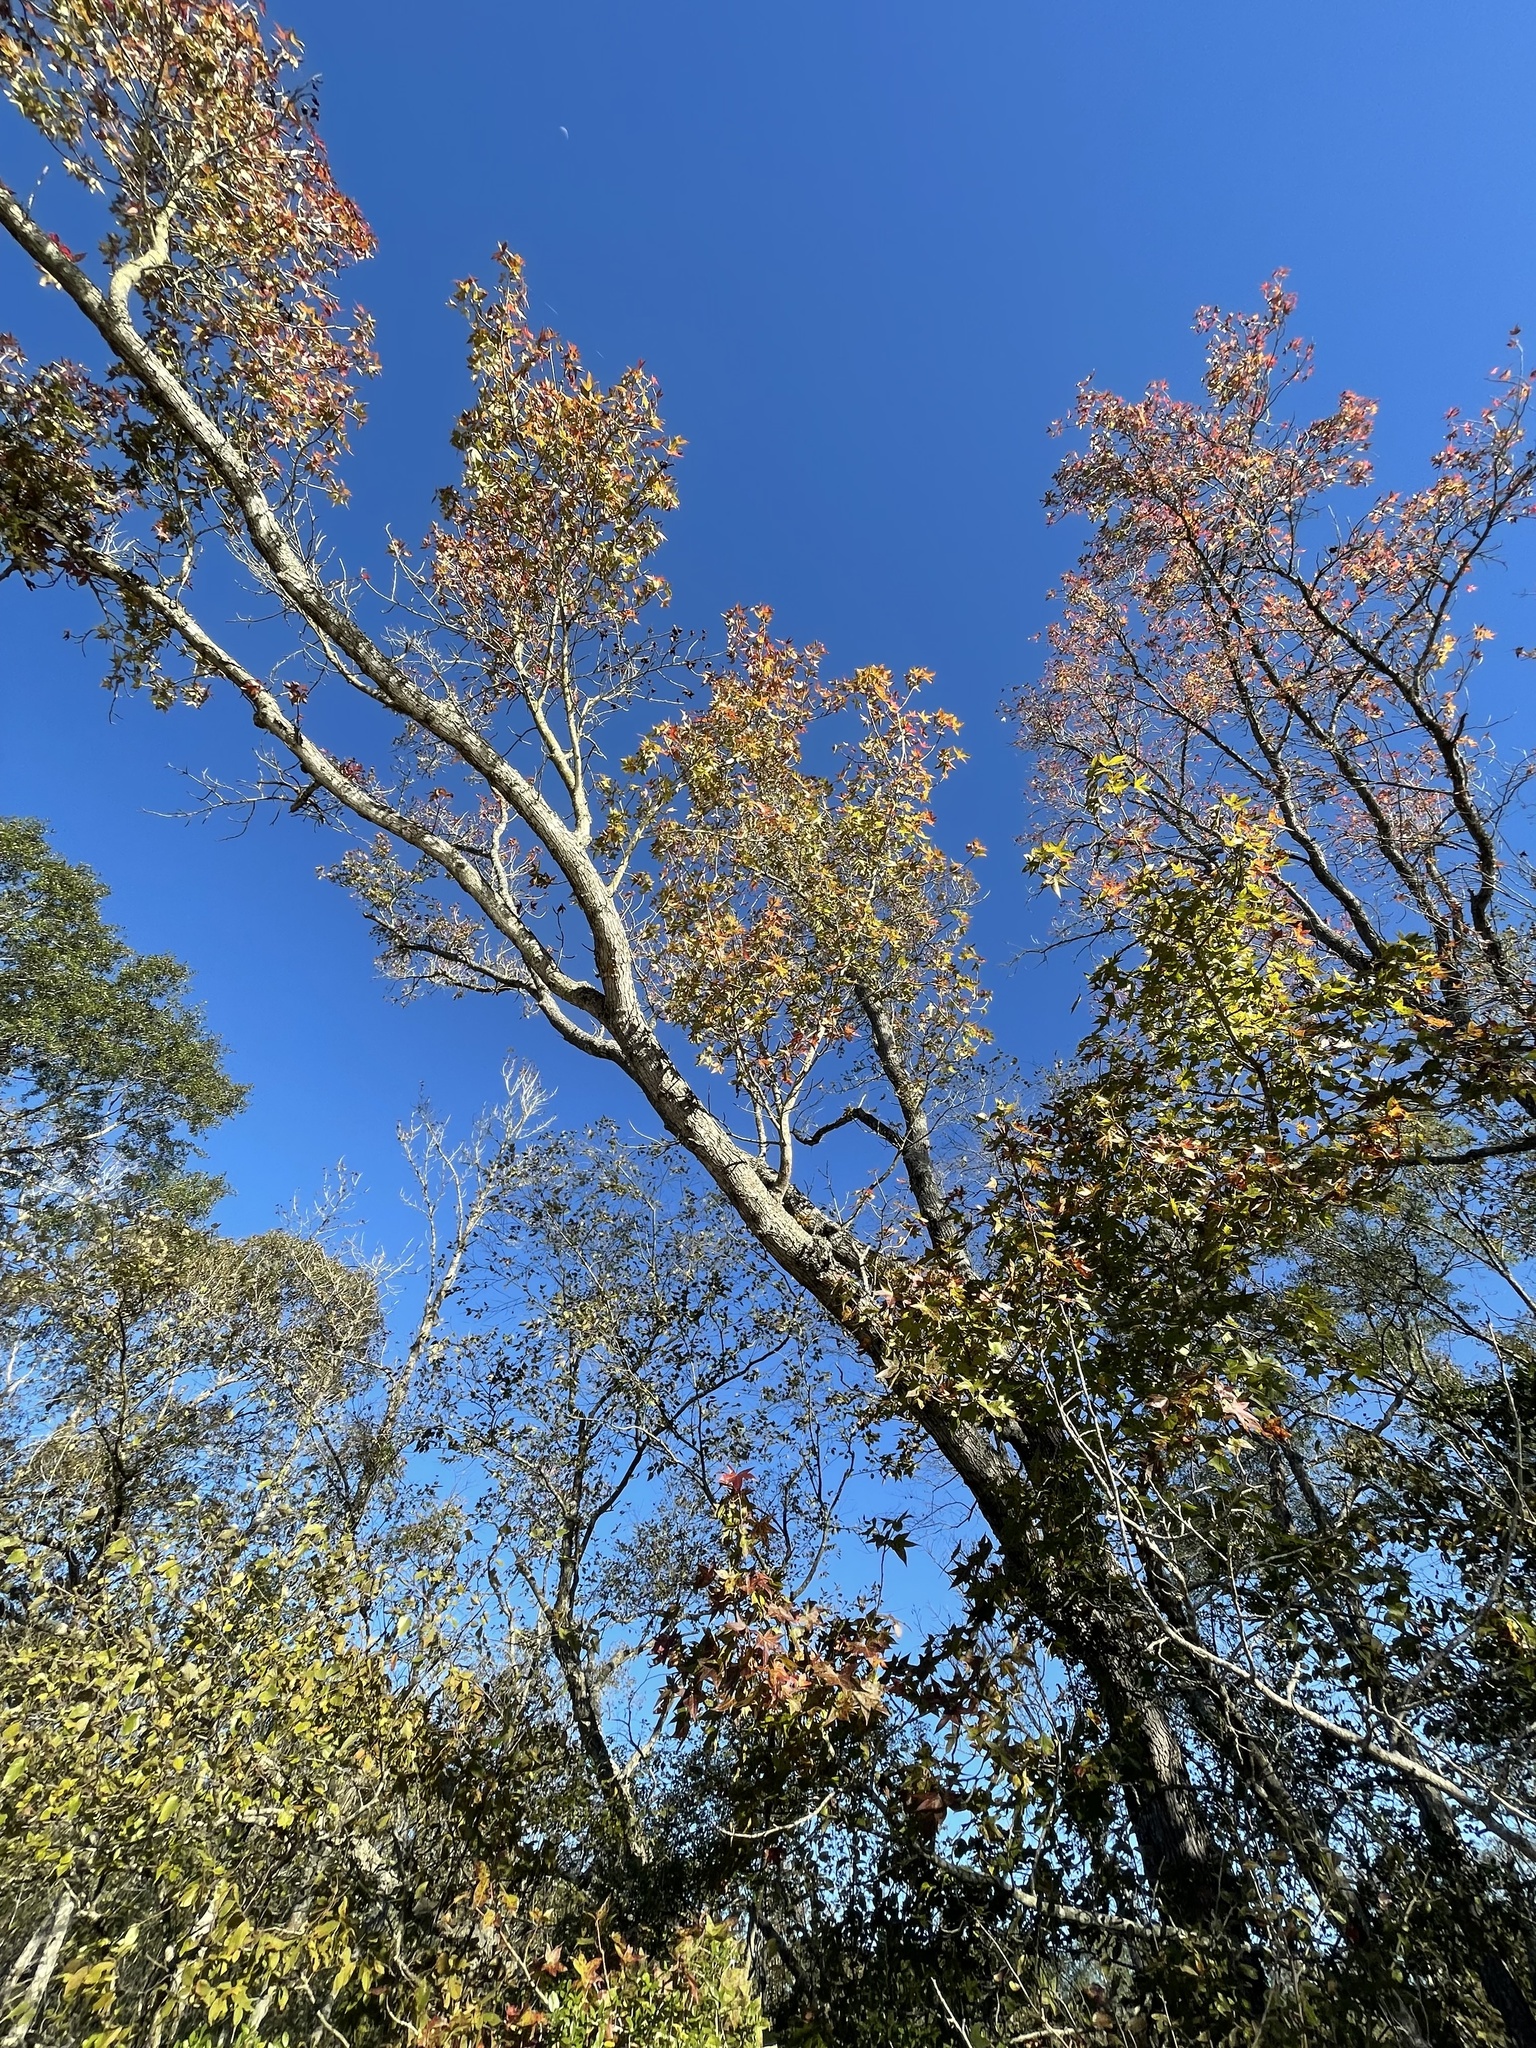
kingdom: Plantae
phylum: Tracheophyta
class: Magnoliopsida
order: Saxifragales
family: Altingiaceae
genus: Liquidambar
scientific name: Liquidambar styraciflua
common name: Sweet gum
